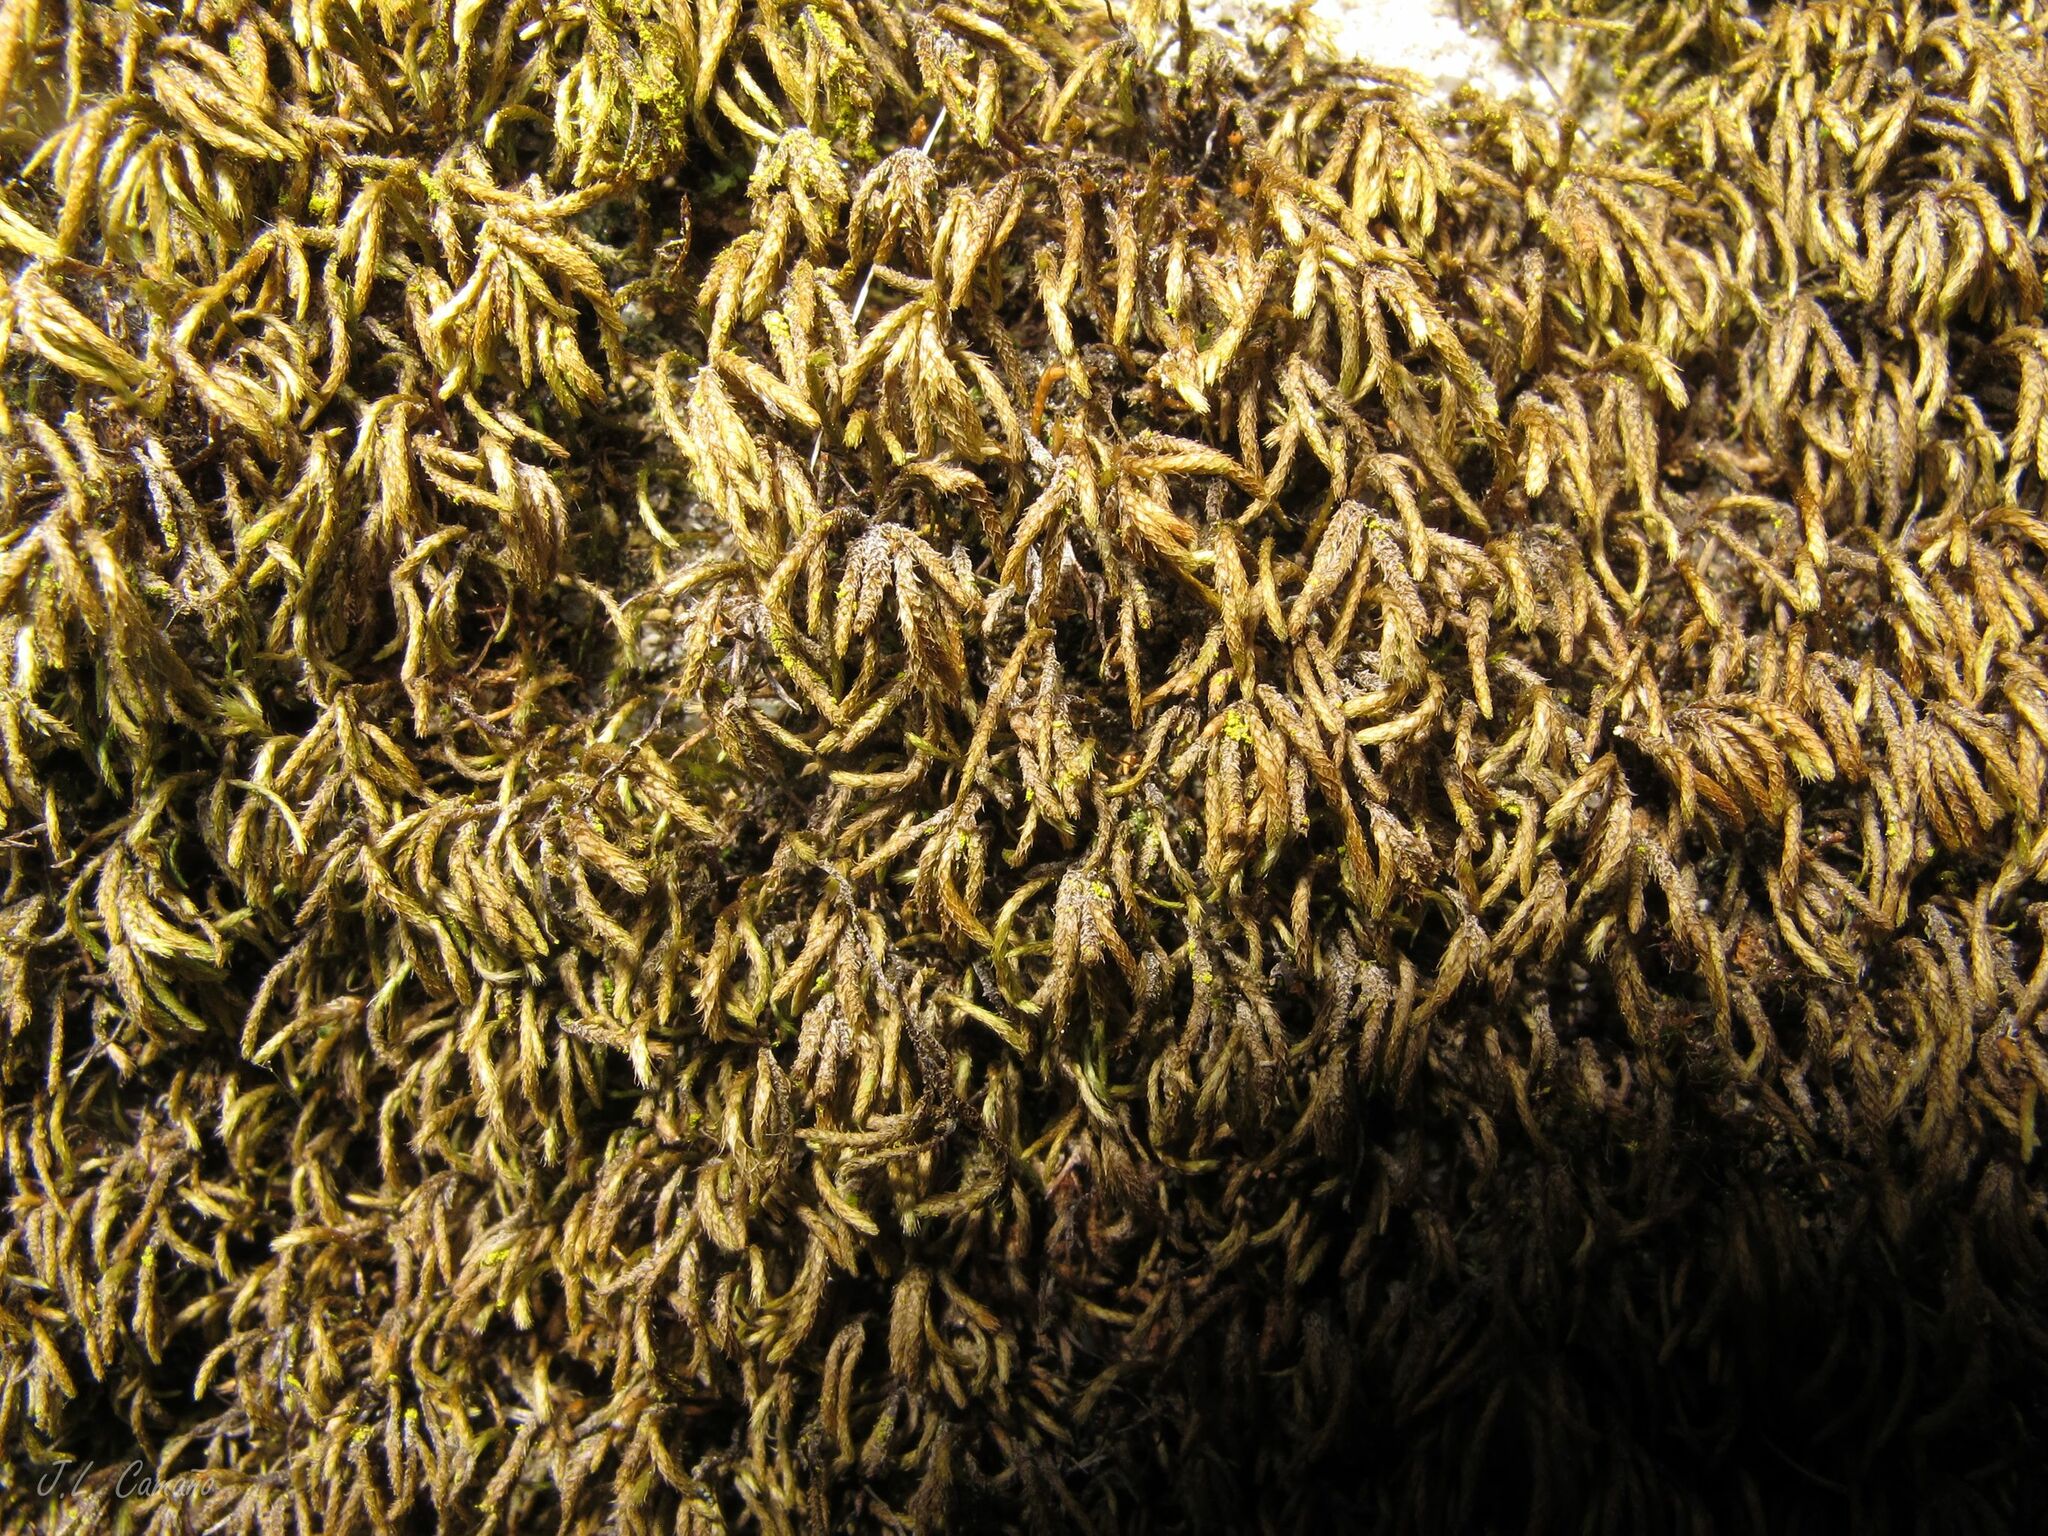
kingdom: Plantae
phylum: Bryophyta
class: Bryopsida
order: Hypnales
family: Lembophyllaceae
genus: Nogopterium
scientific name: Nogopterium gracile
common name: Bird's-foot wing-moss
